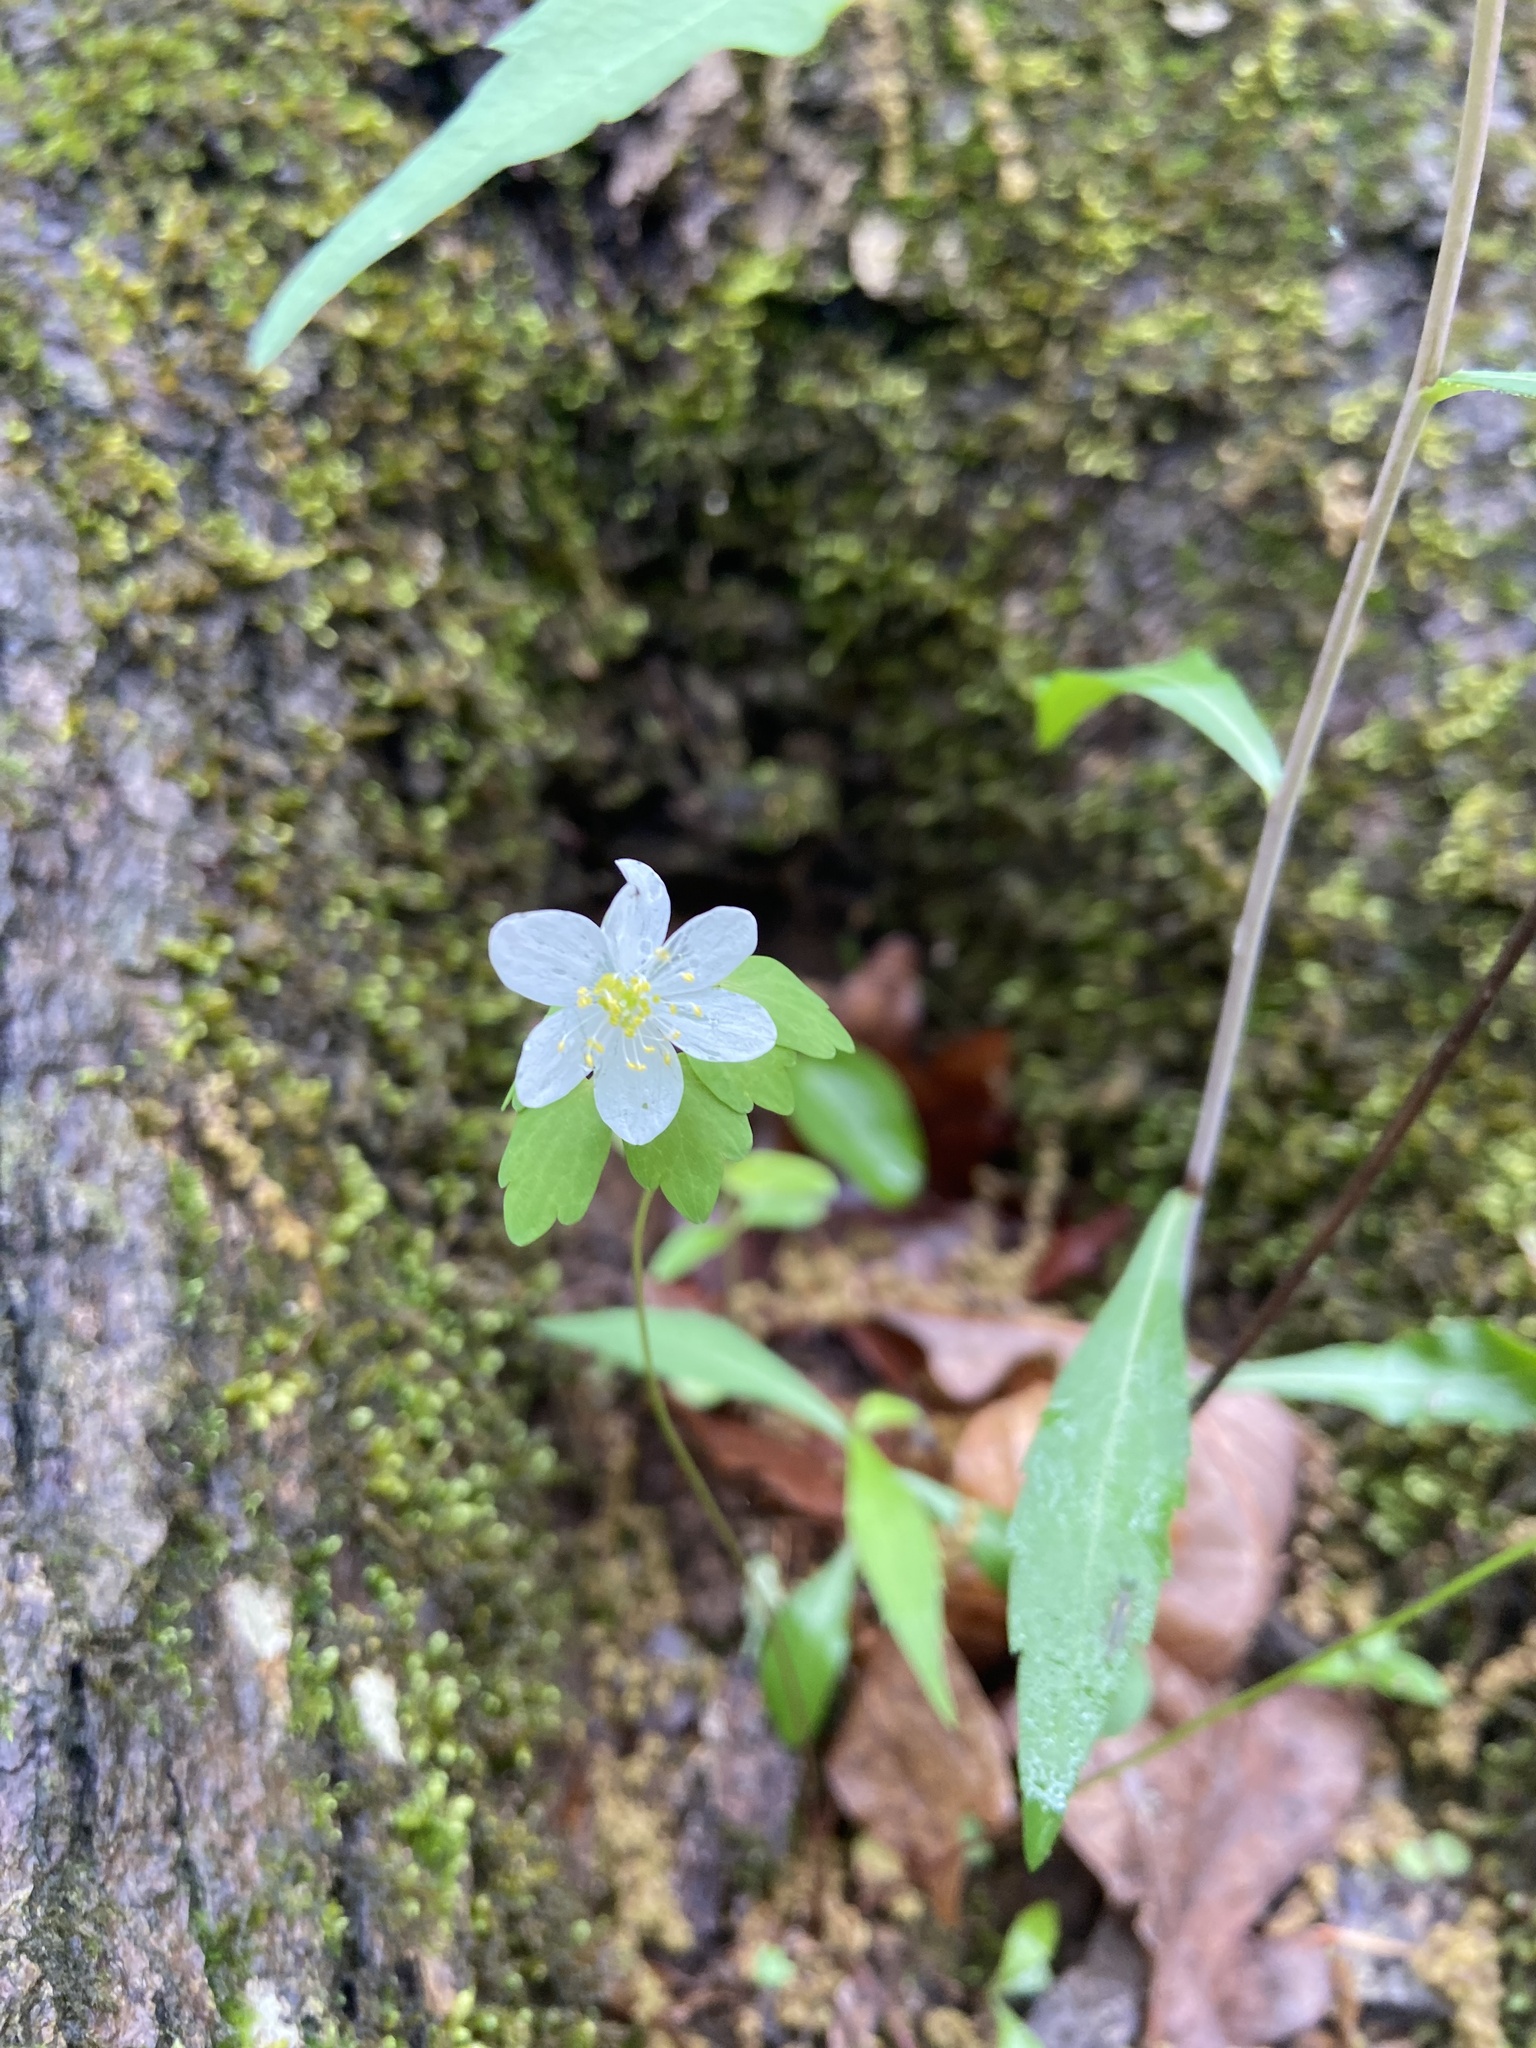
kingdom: Plantae
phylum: Tracheophyta
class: Magnoliopsida
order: Ranunculales
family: Ranunculaceae
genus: Thalictrum
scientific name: Thalictrum thalictroides
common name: Rue-anemone
